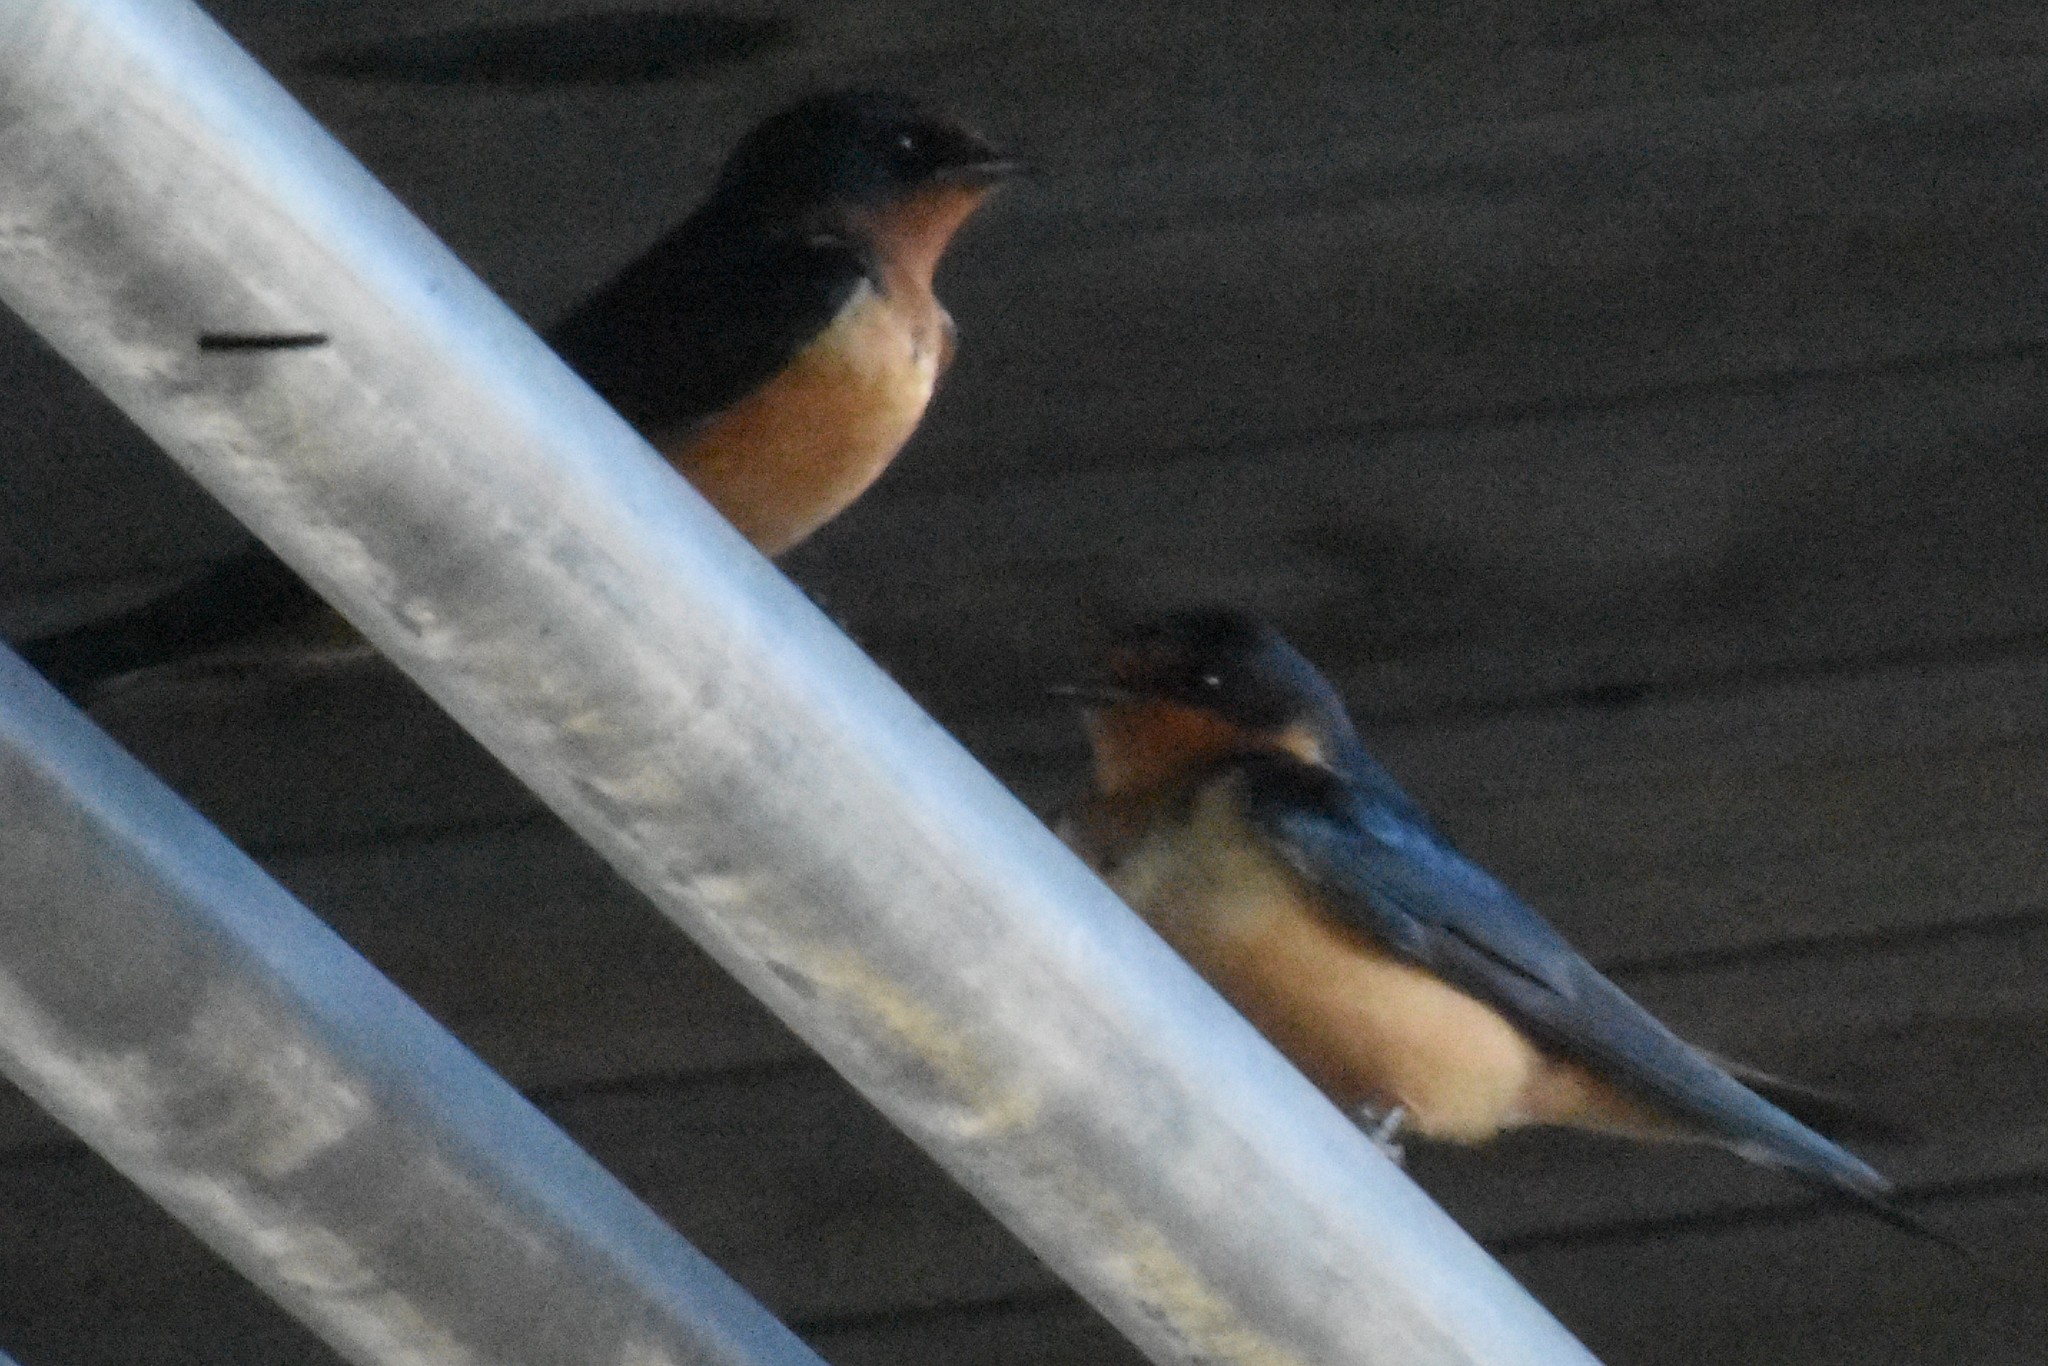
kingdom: Animalia
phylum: Chordata
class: Aves
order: Passeriformes
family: Hirundinidae
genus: Hirundo
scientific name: Hirundo rustica
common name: Barn swallow
